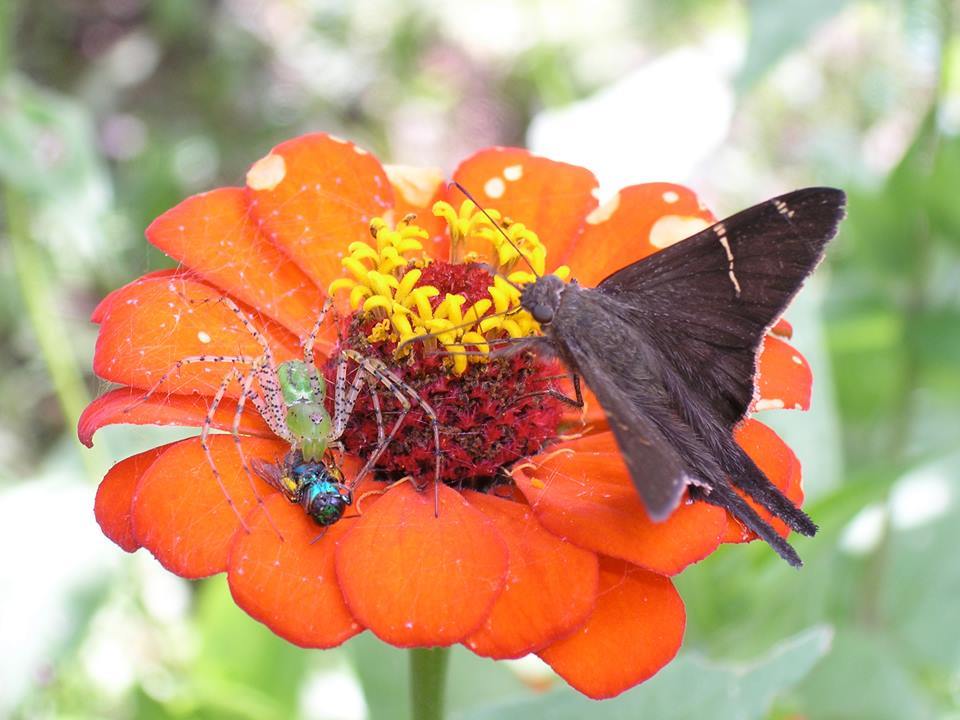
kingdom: Animalia
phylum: Arthropoda
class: Insecta
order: Lepidoptera
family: Hesperiidae
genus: Urbanus
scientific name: Urbanus procne
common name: Brown longtail
